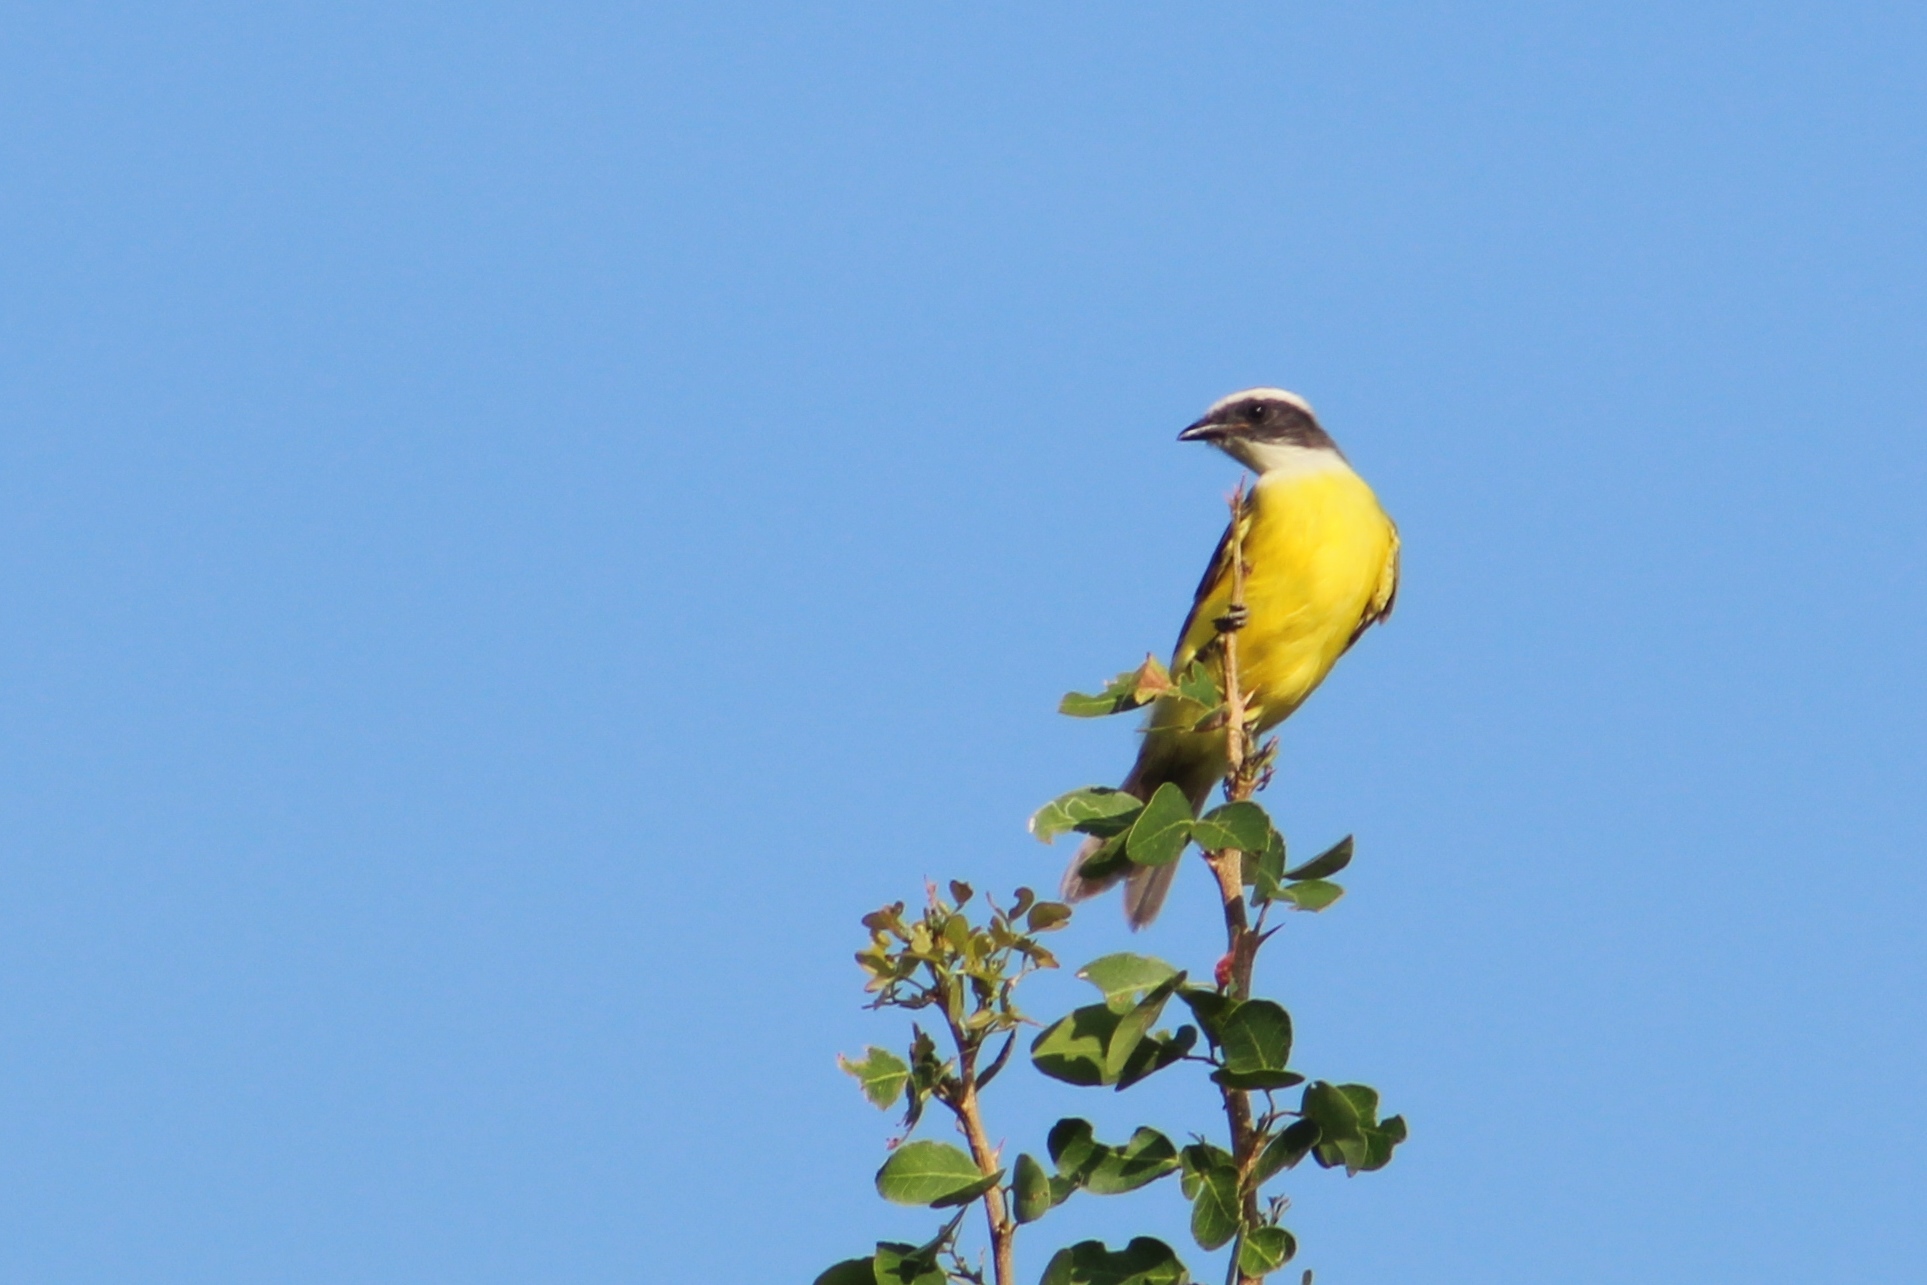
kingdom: Animalia
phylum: Chordata
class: Aves
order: Passeriformes
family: Tyrannidae
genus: Myiozetetes
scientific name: Myiozetetes similis
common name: Social flycatcher
